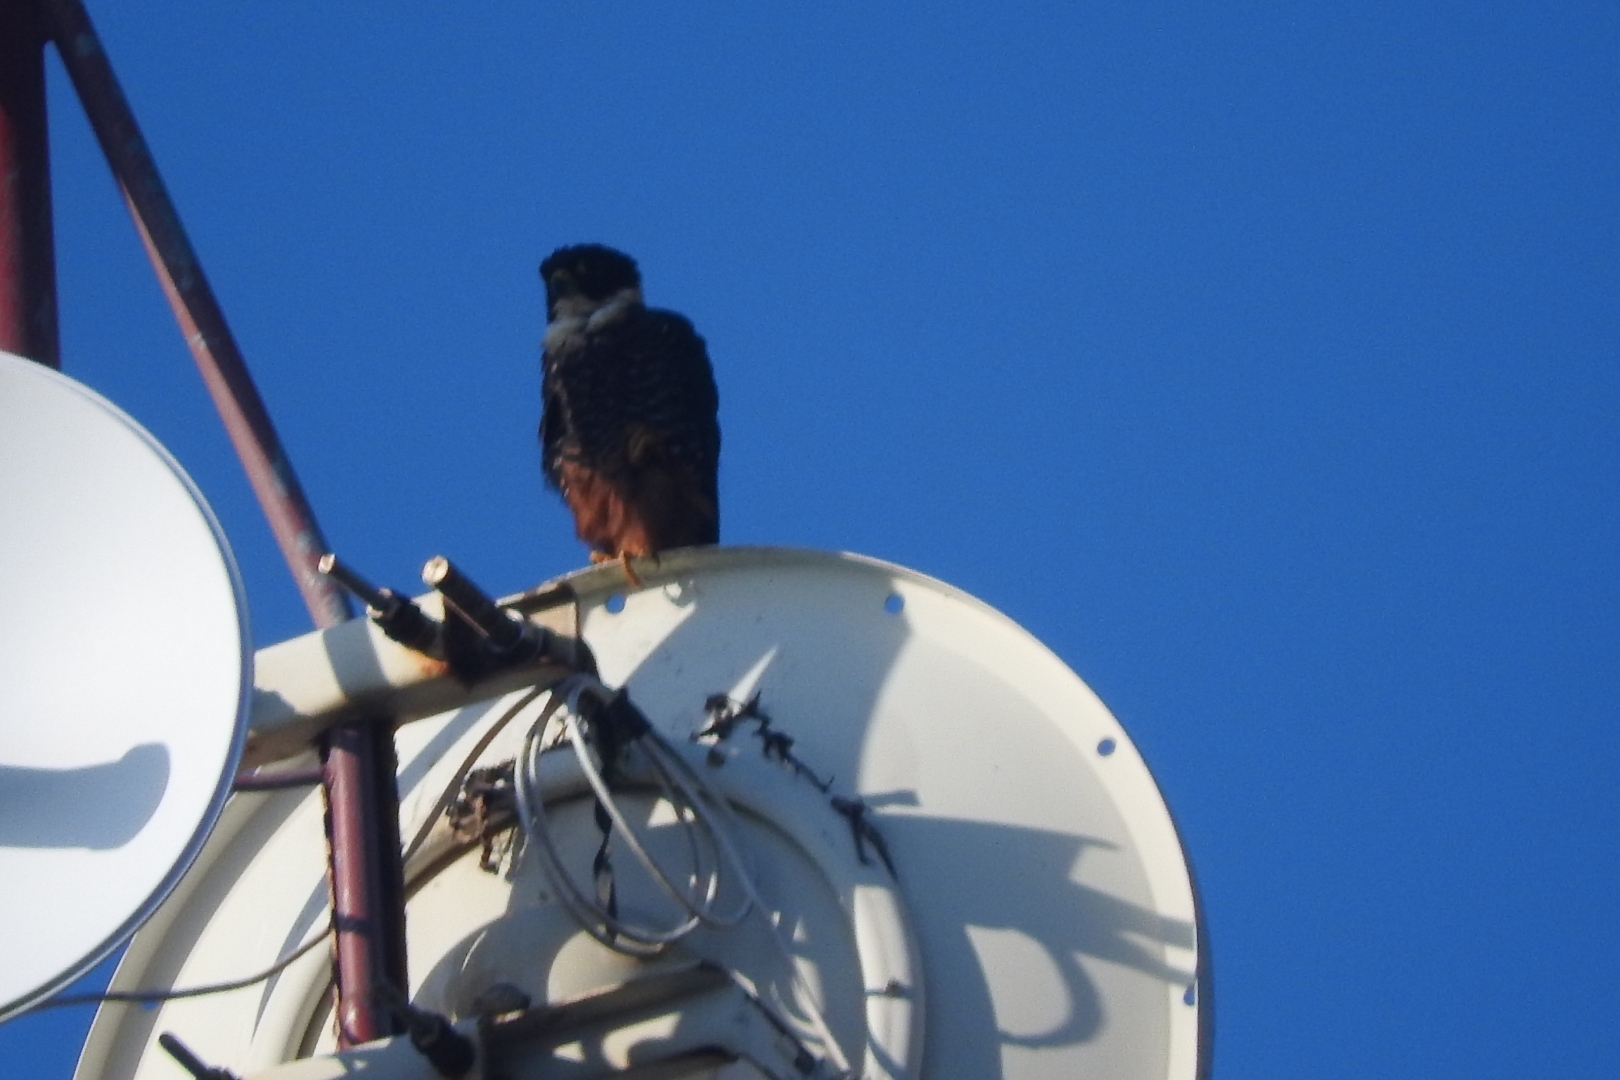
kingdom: Animalia
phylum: Chordata
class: Aves
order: Falconiformes
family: Falconidae
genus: Falco
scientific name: Falco rufigularis
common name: Bat falcon
